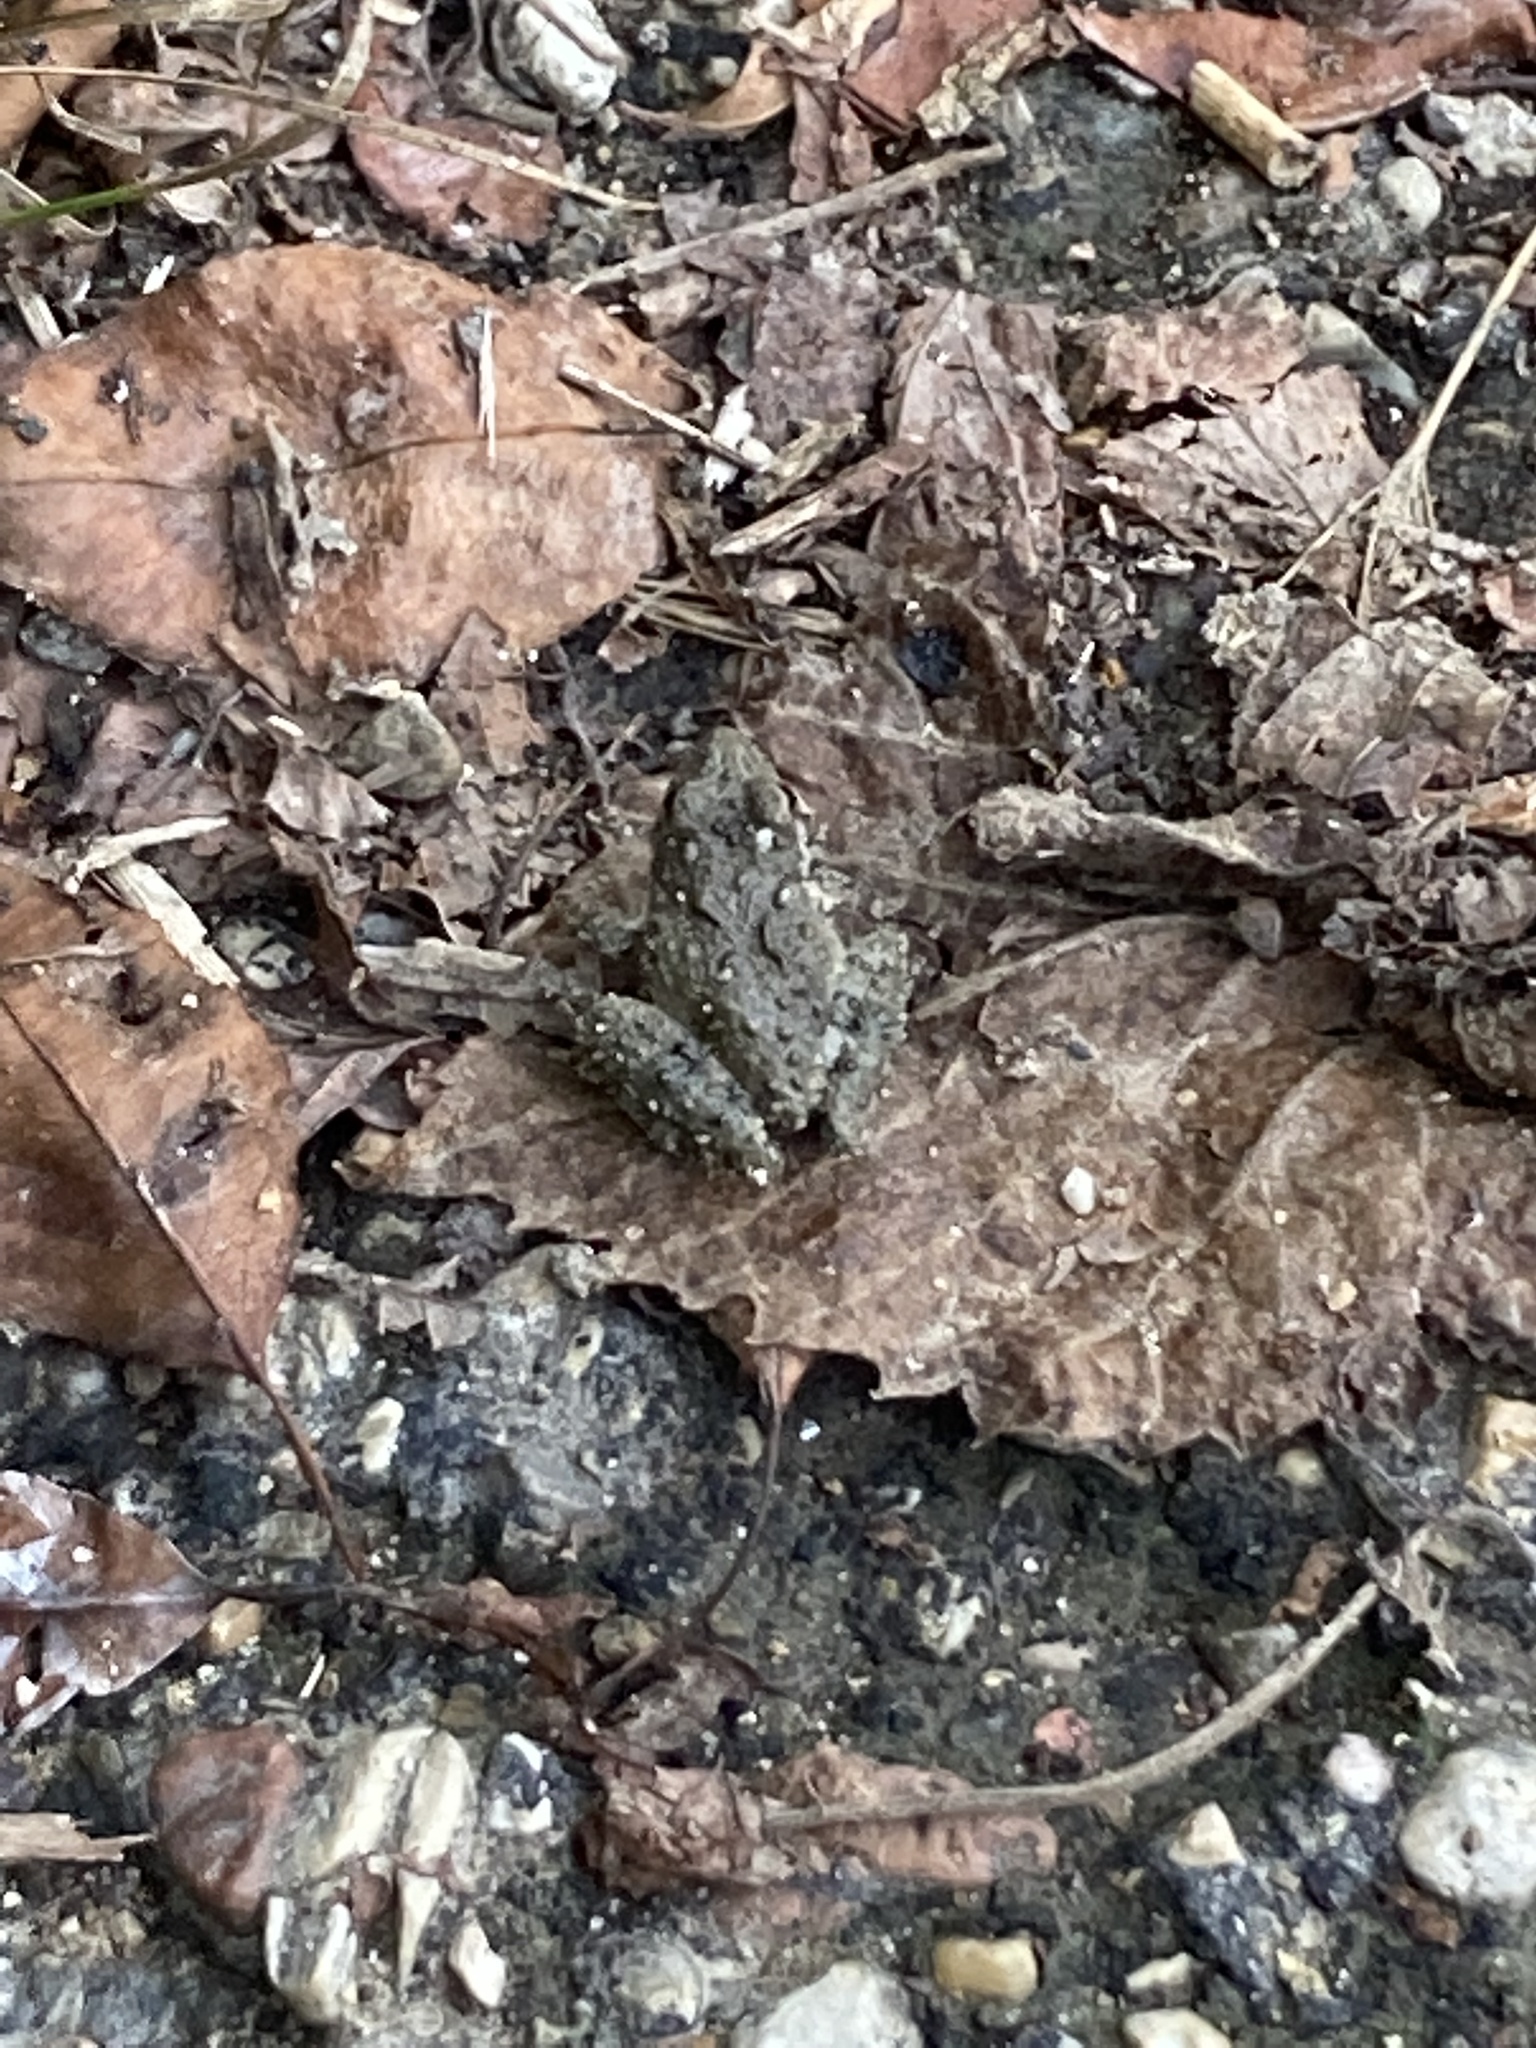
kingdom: Animalia
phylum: Chordata
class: Amphibia
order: Anura
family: Hylidae
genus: Acris
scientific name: Acris blanchardi
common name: Blanchard's cricket frog
